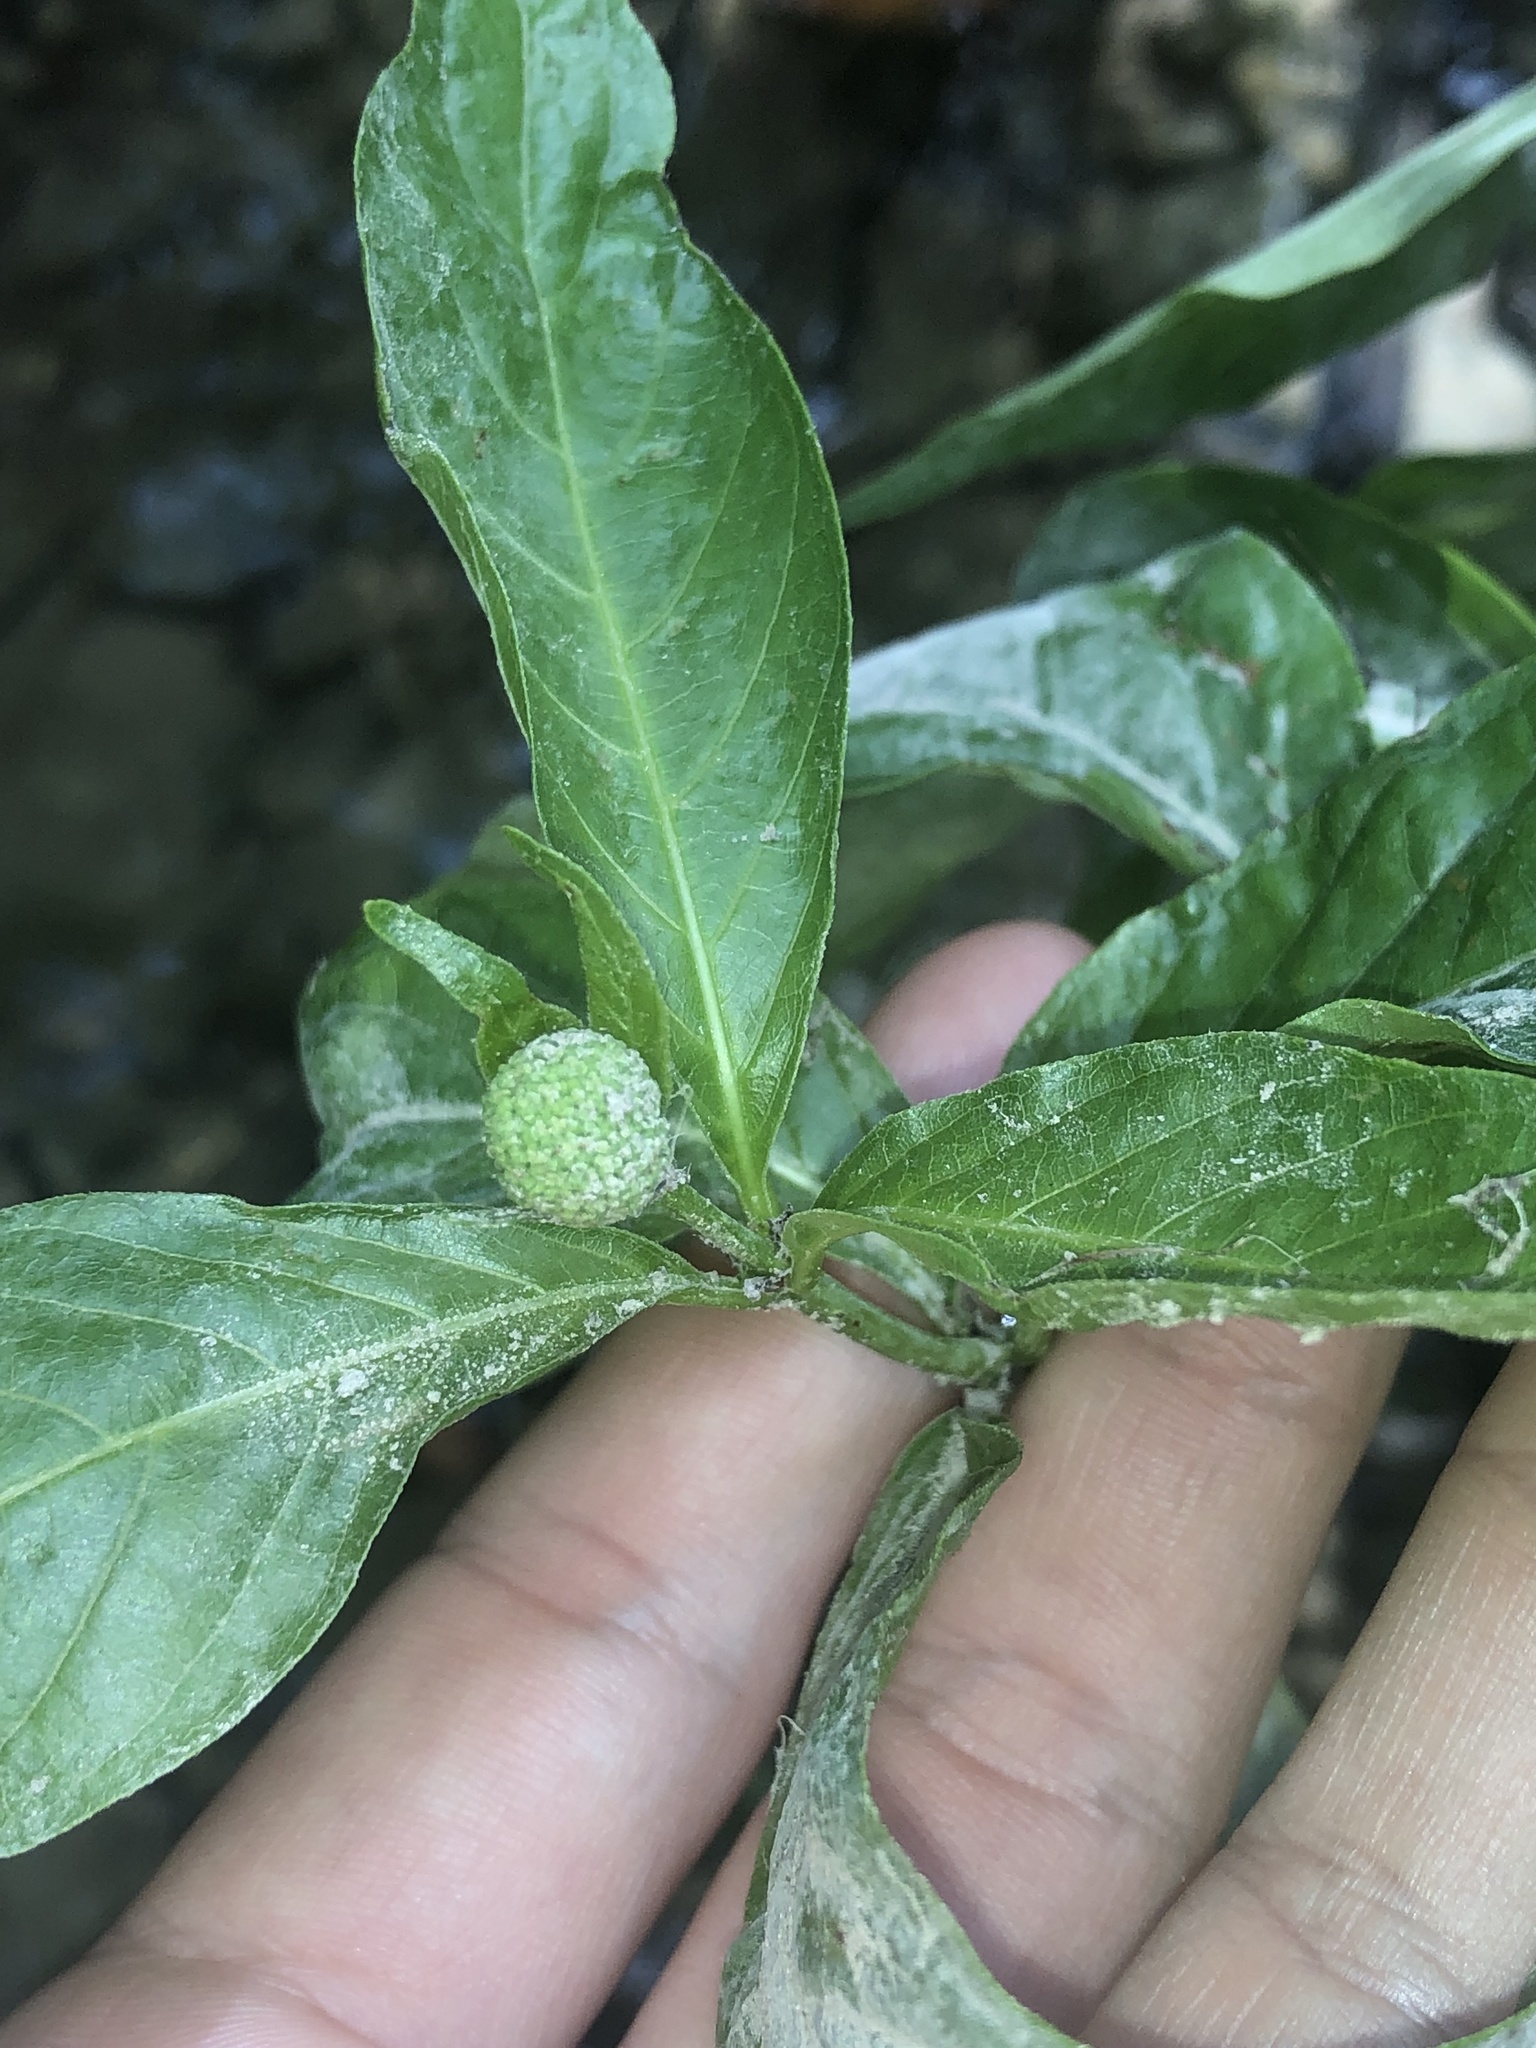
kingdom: Plantae
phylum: Tracheophyta
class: Magnoliopsida
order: Gentianales
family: Rubiaceae
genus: Cephalanthus
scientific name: Cephalanthus occidentalis
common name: Button-willow
